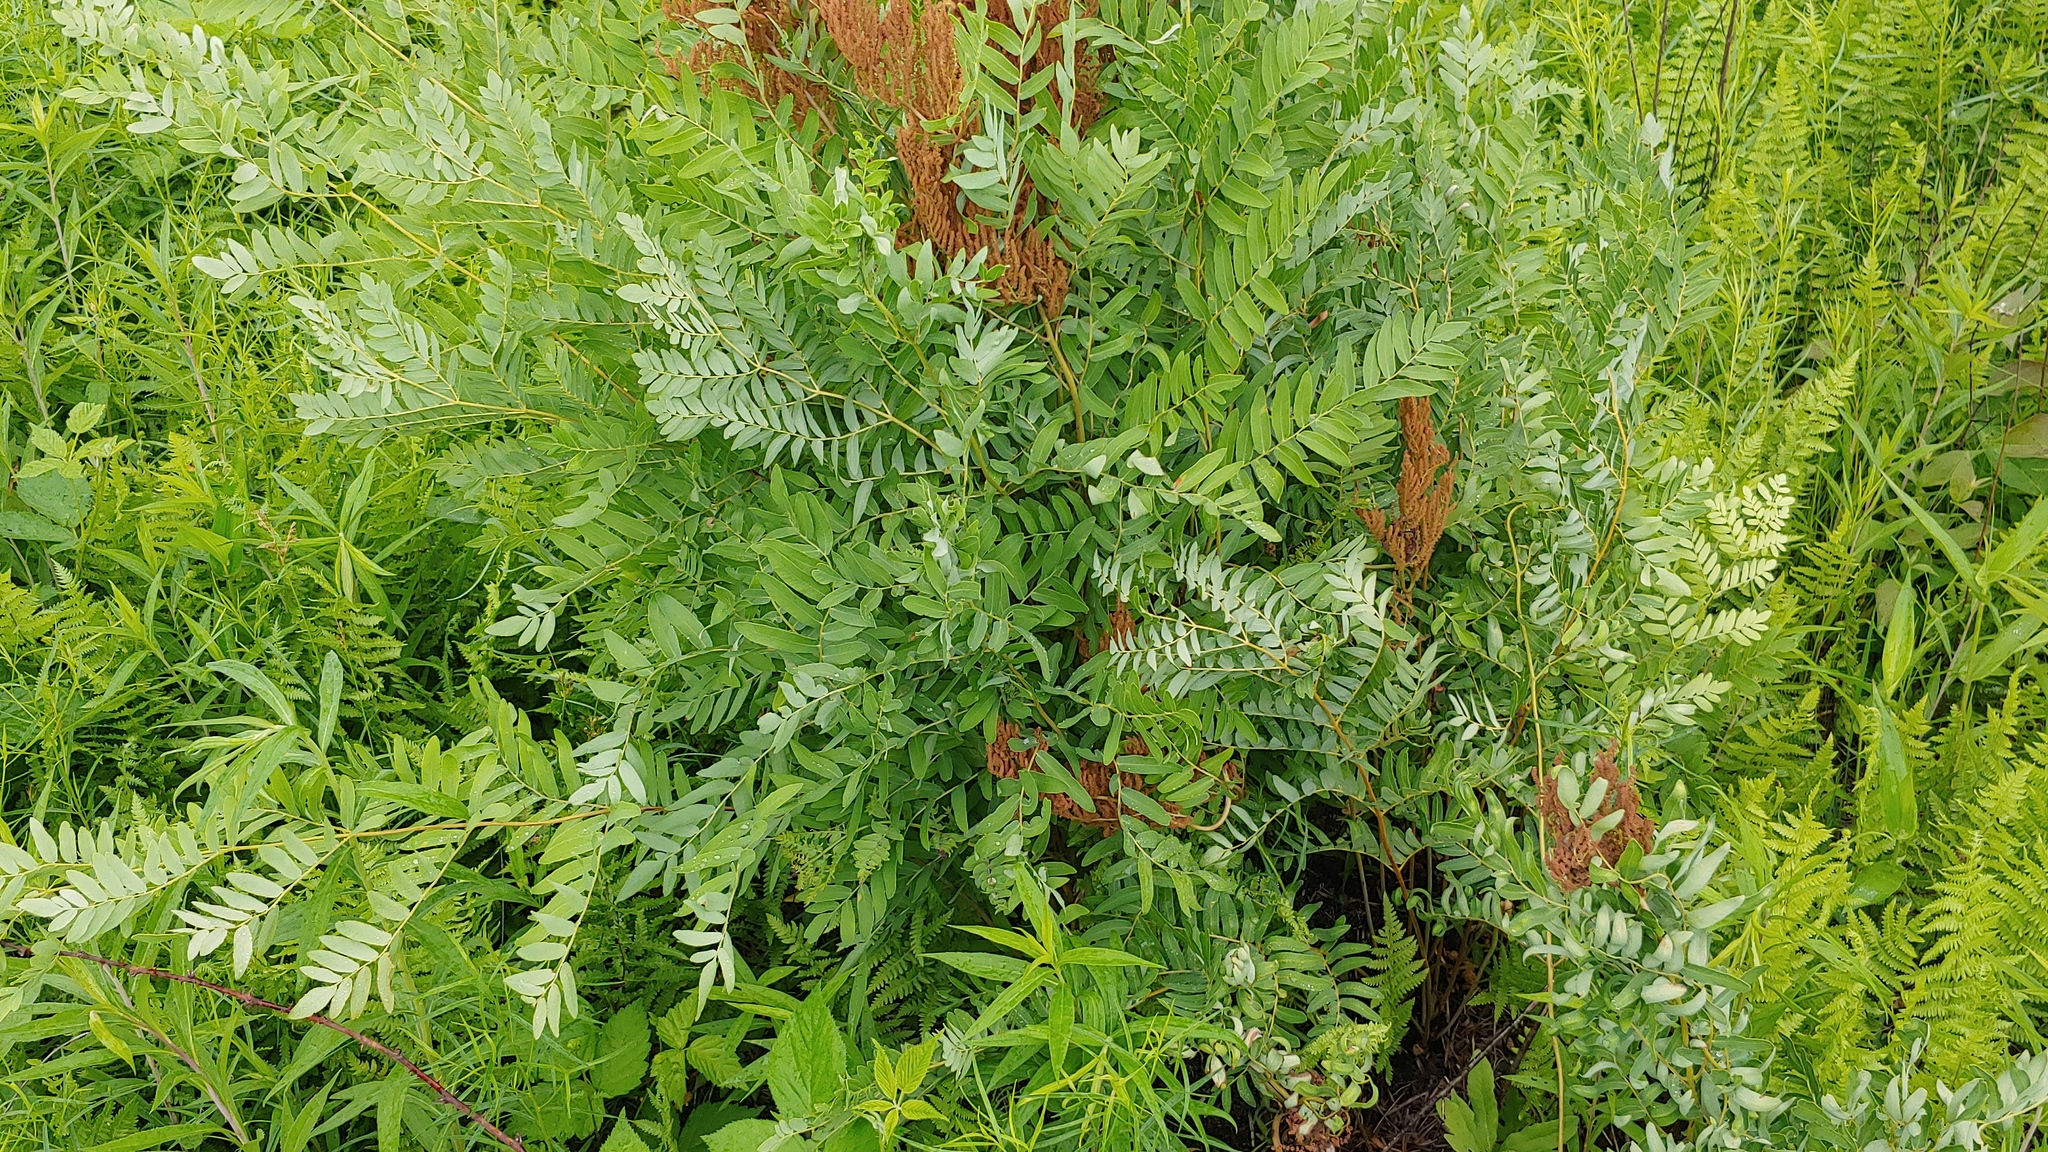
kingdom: Plantae
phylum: Tracheophyta
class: Polypodiopsida
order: Osmundales
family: Osmundaceae
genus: Osmunda
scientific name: Osmunda spectabilis
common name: American royal fern
